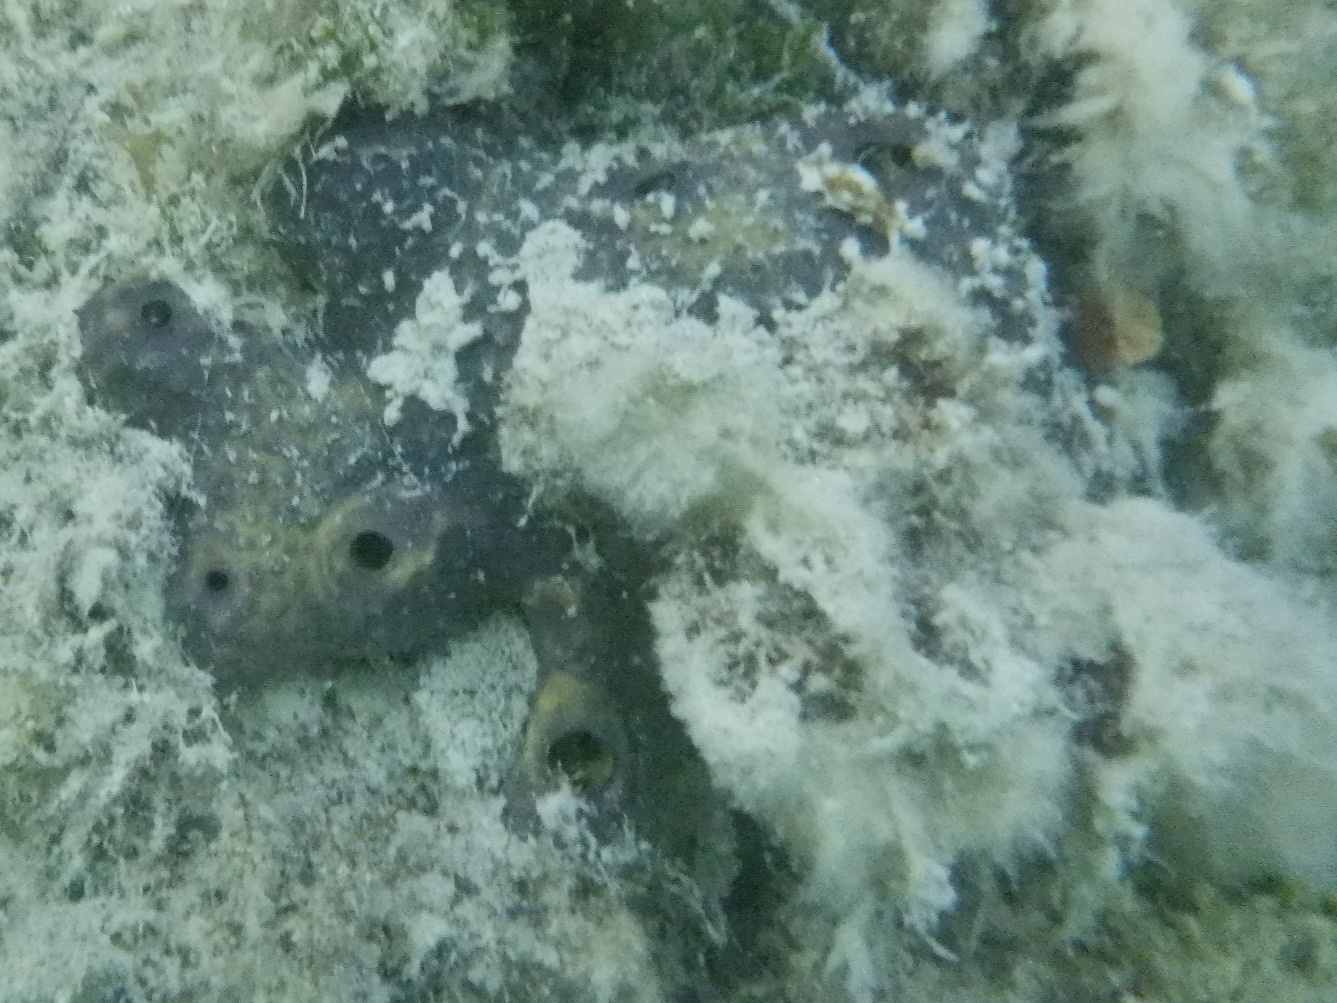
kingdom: Animalia
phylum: Porifera
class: Demospongiae
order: Verongiida
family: Aplysinidae
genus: Aiolochroia
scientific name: Aiolochroia crassa
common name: Branching tube sponge
